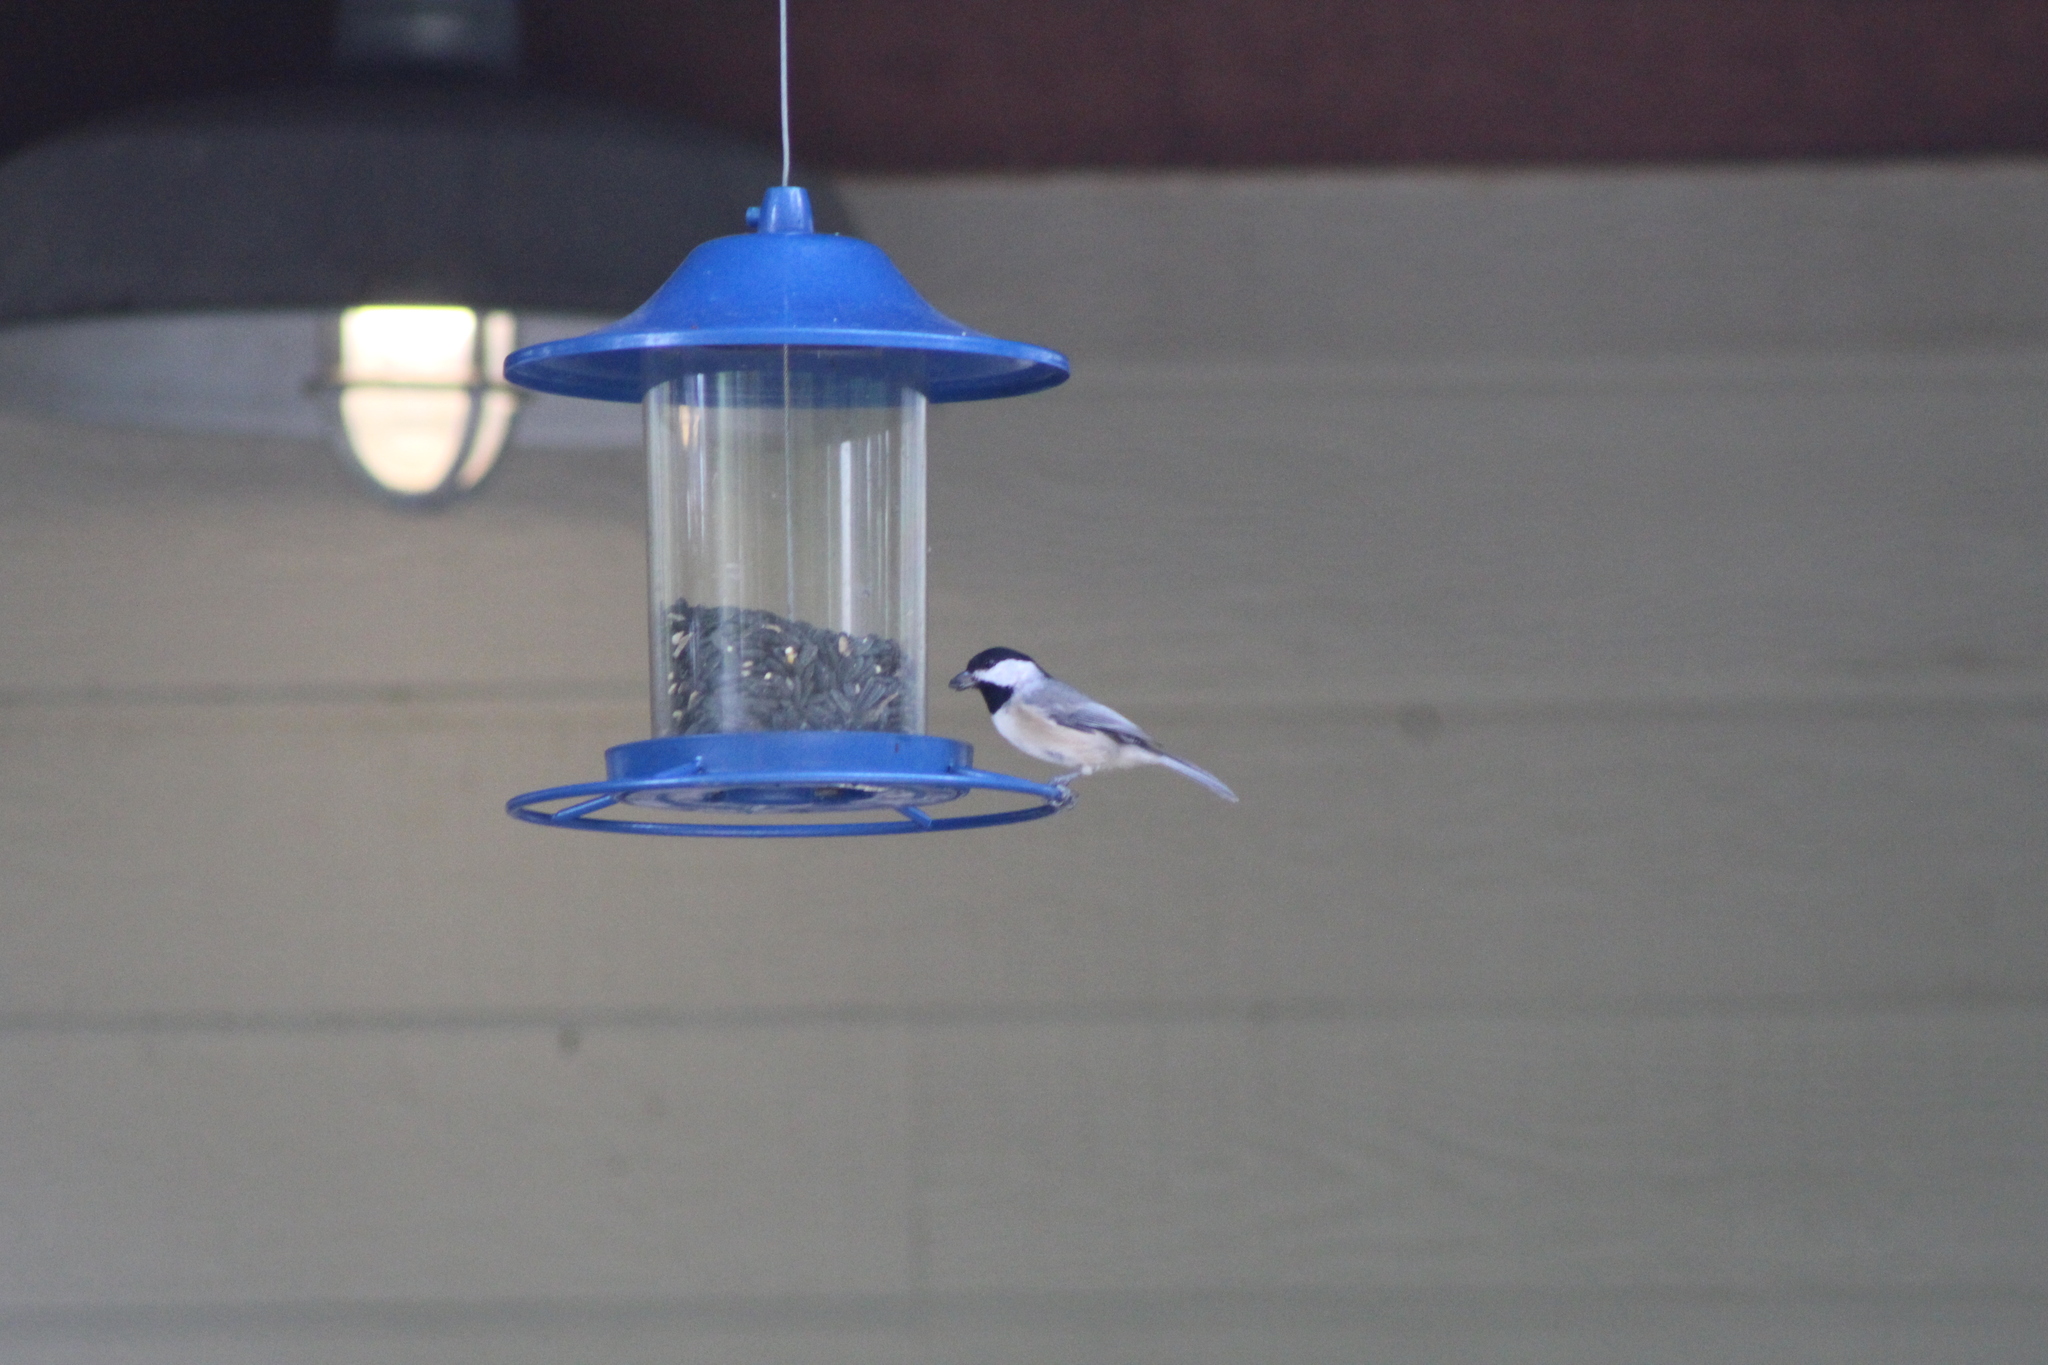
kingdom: Animalia
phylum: Chordata
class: Aves
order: Passeriformes
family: Paridae
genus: Poecile
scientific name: Poecile carolinensis
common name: Carolina chickadee
